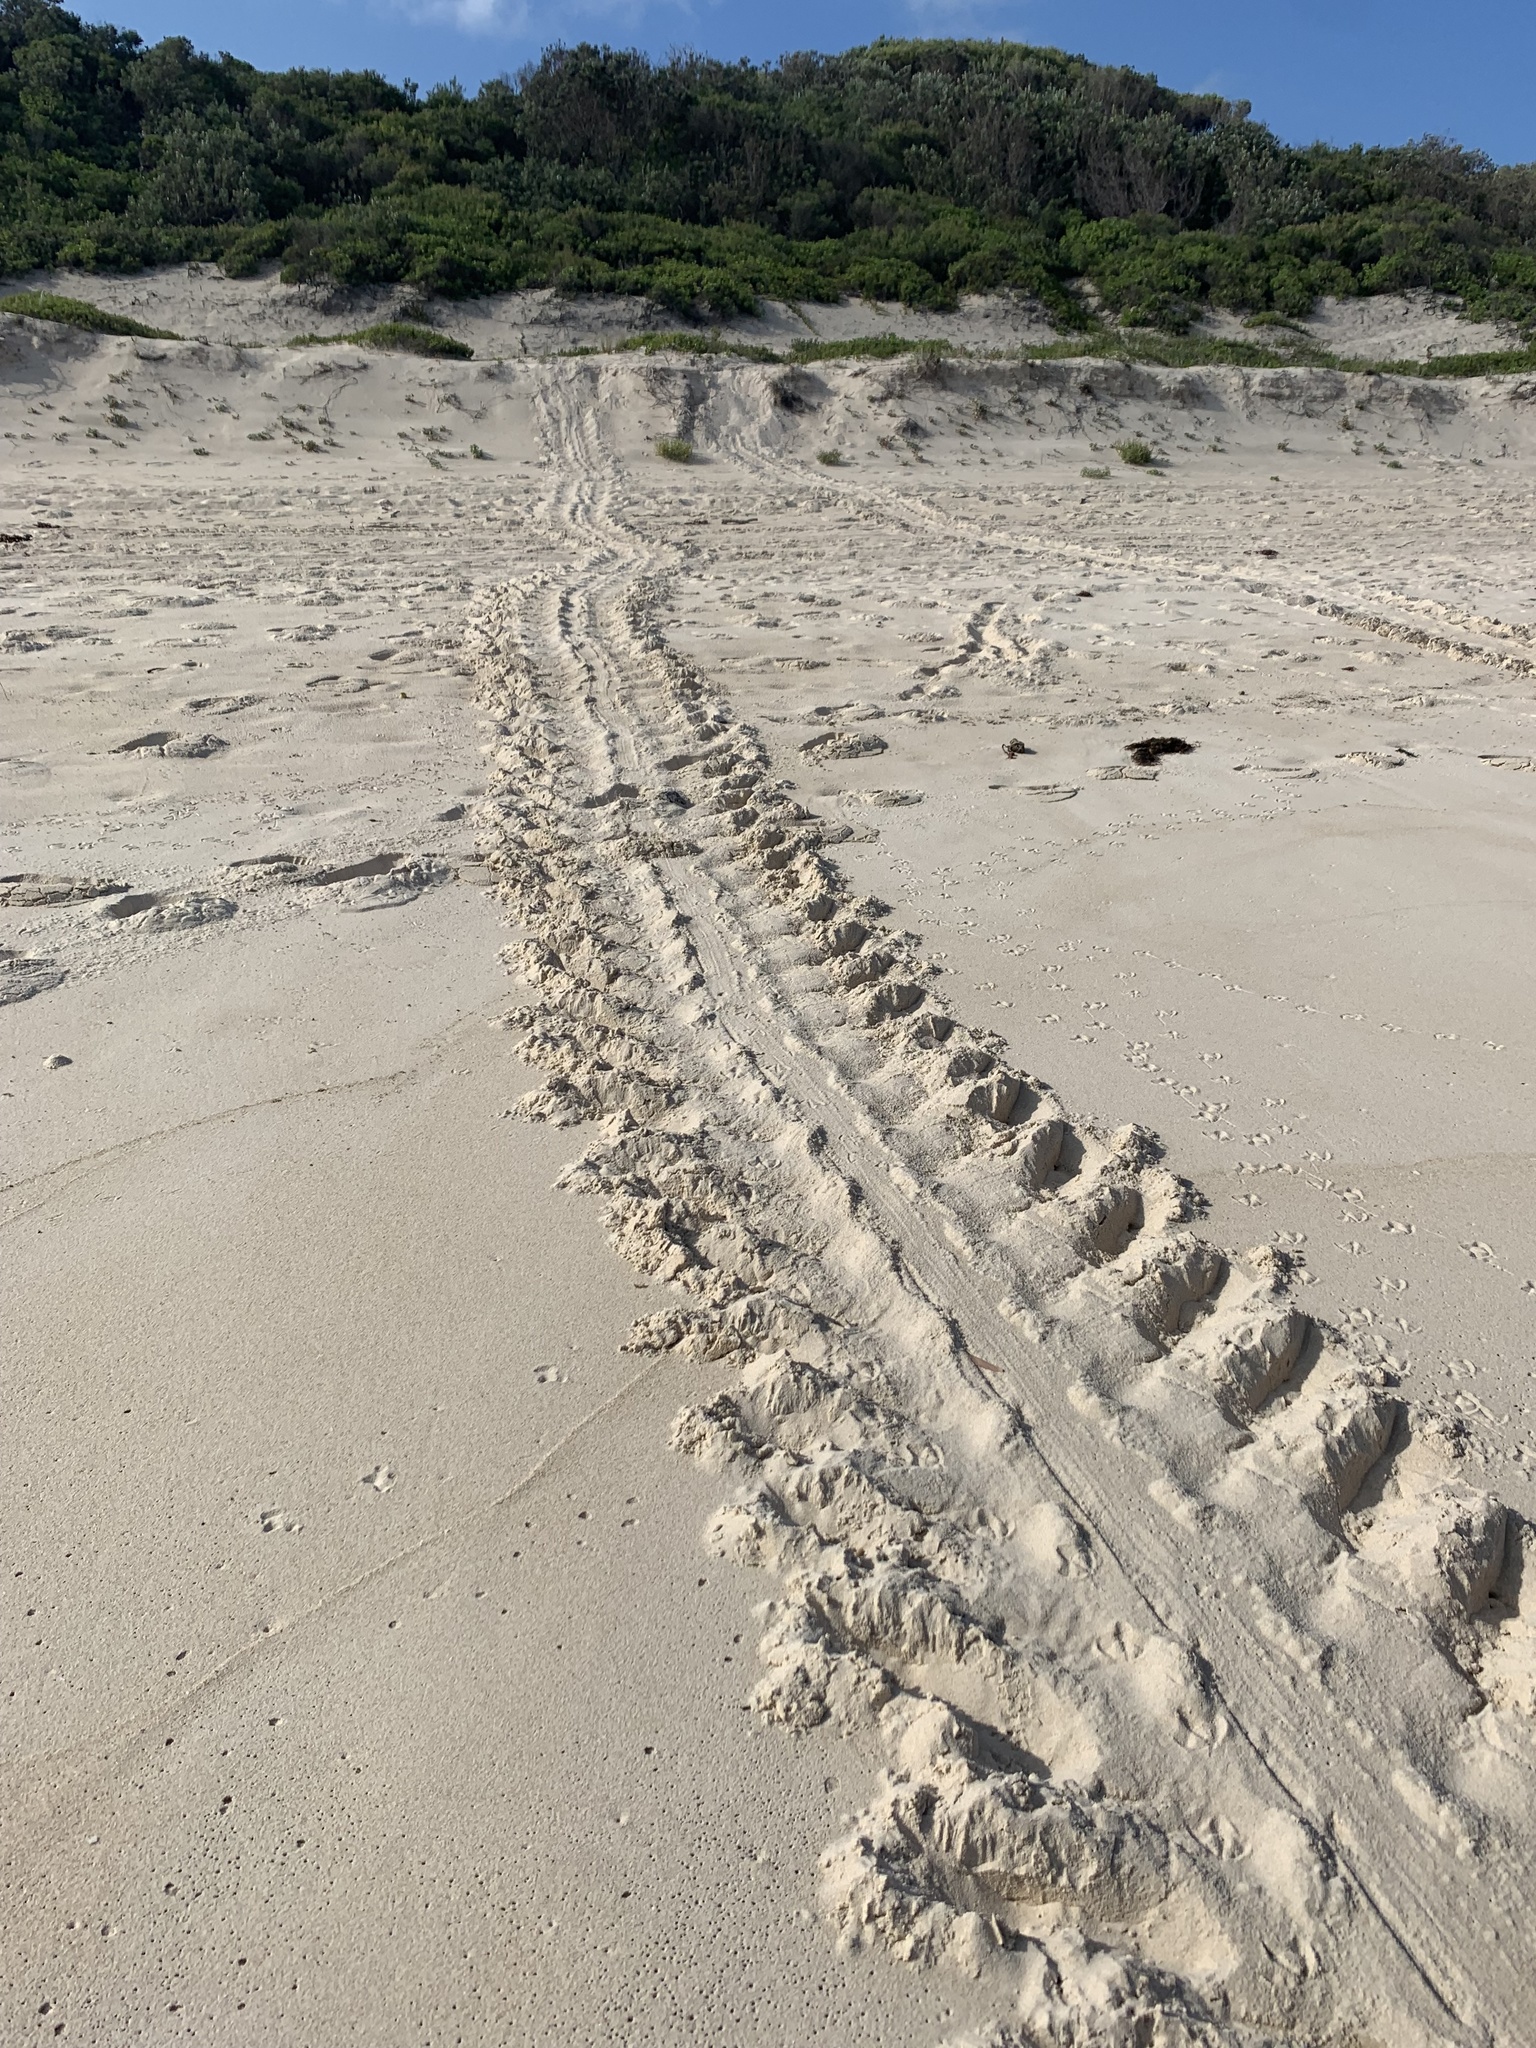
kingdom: Animalia
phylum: Chordata
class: Testudines
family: Cheloniidae
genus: Chelonia
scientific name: Chelonia mydas
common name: Green turtle
